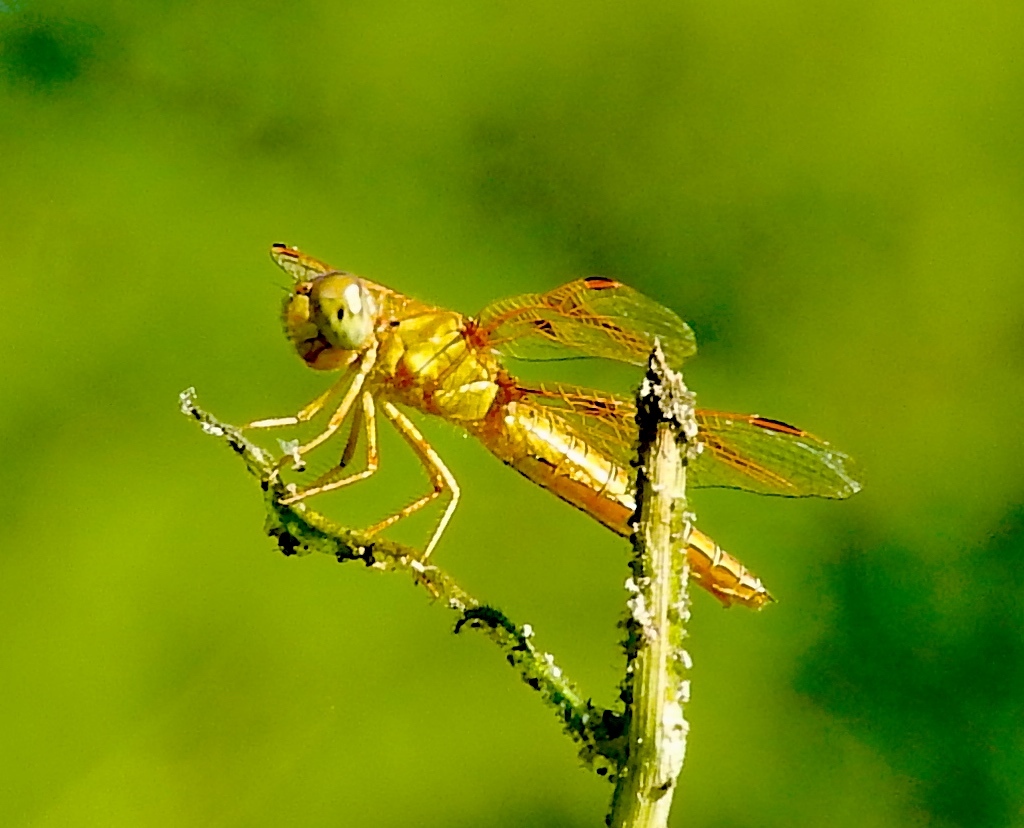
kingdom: Animalia
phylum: Arthropoda
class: Insecta
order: Odonata
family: Libellulidae
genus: Perithemis
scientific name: Perithemis
